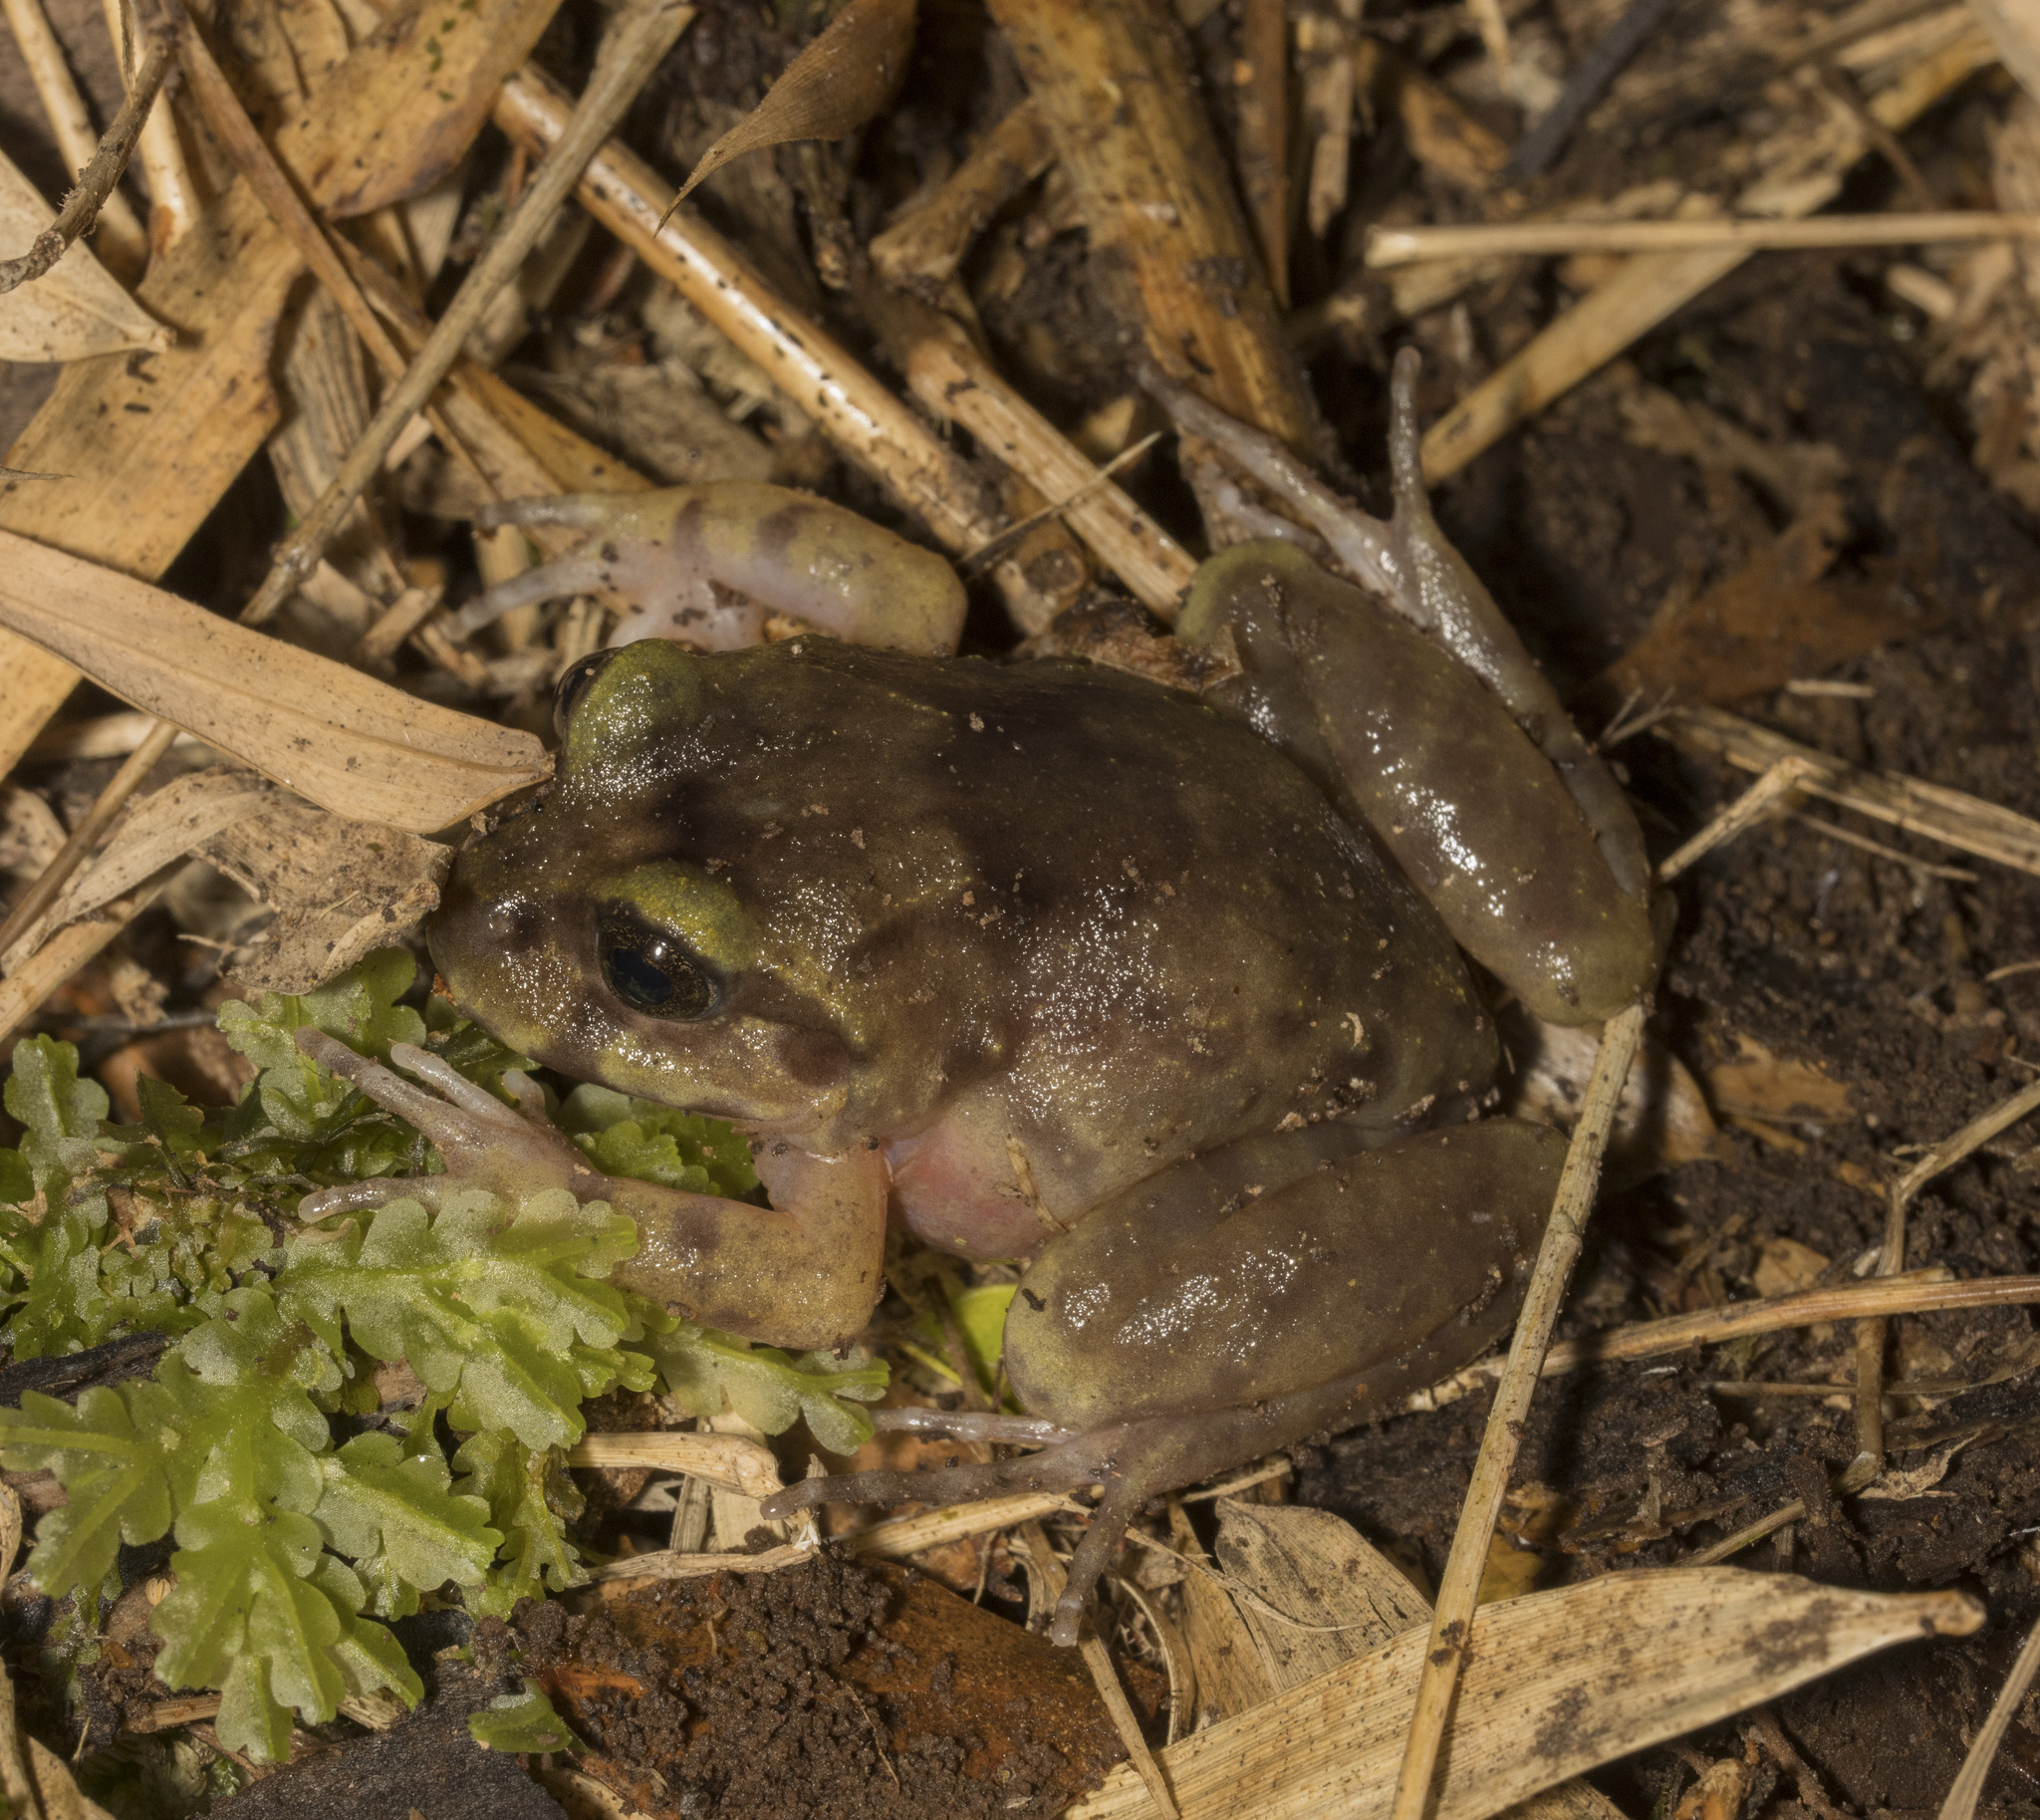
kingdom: Animalia
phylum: Chordata
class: Amphibia
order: Anura
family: Alsodidae
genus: Eupsophus
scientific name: Eupsophus emiliopugini
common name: Emilio's ground frog
